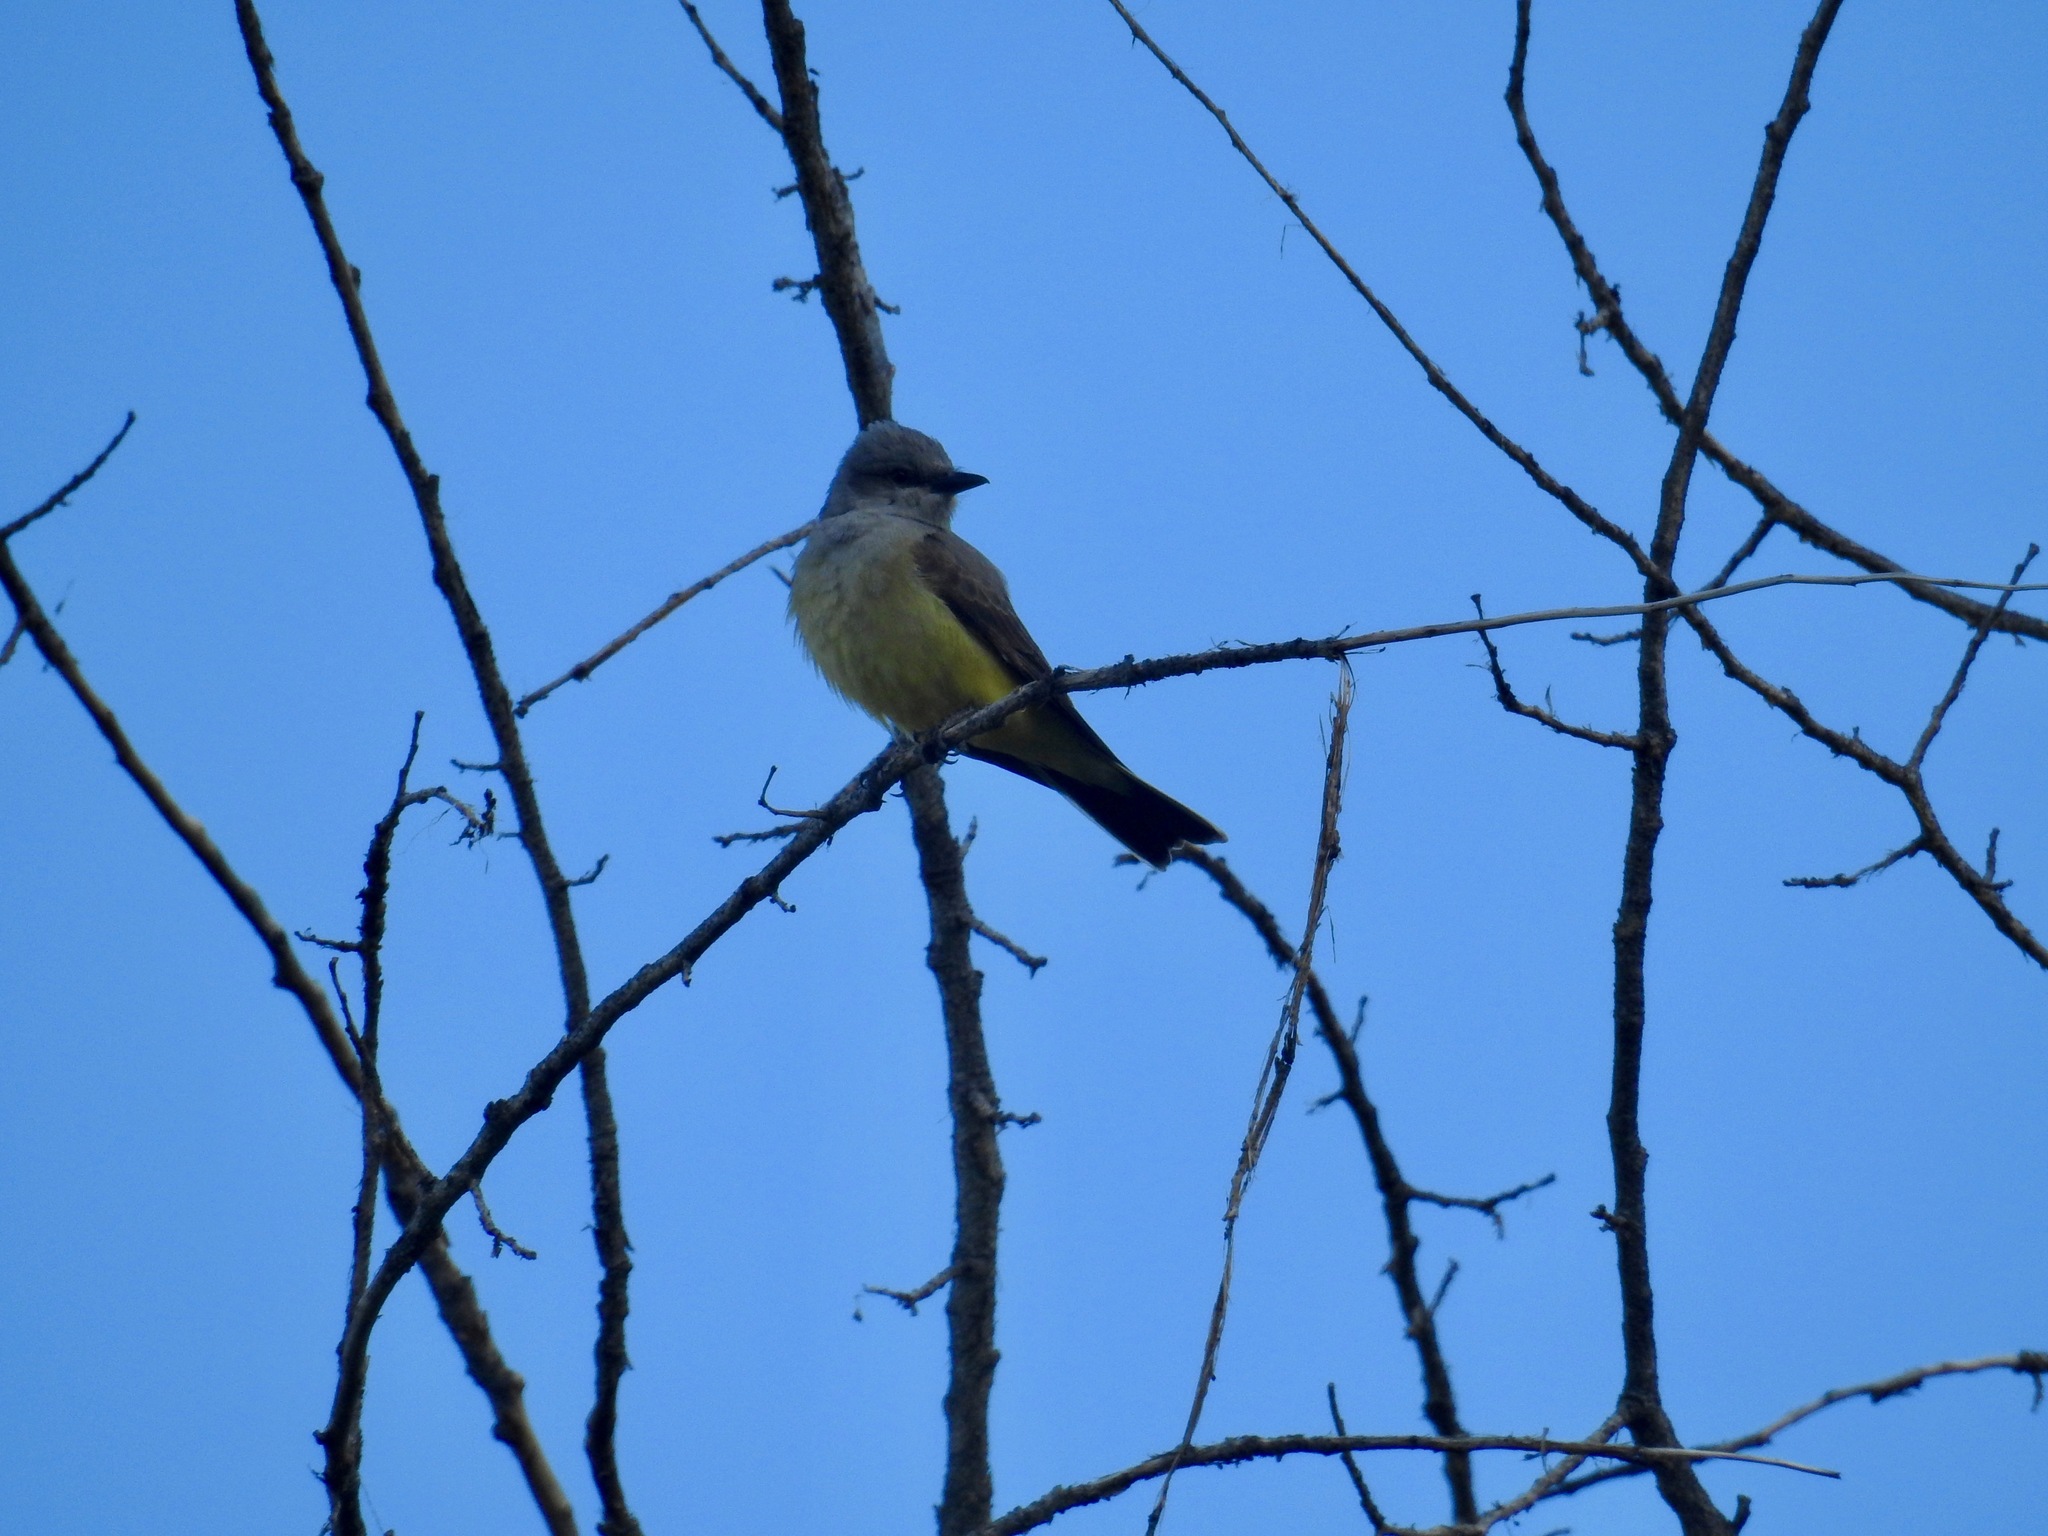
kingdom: Animalia
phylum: Chordata
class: Aves
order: Passeriformes
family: Tyrannidae
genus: Tyrannus
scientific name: Tyrannus verticalis
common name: Western kingbird
